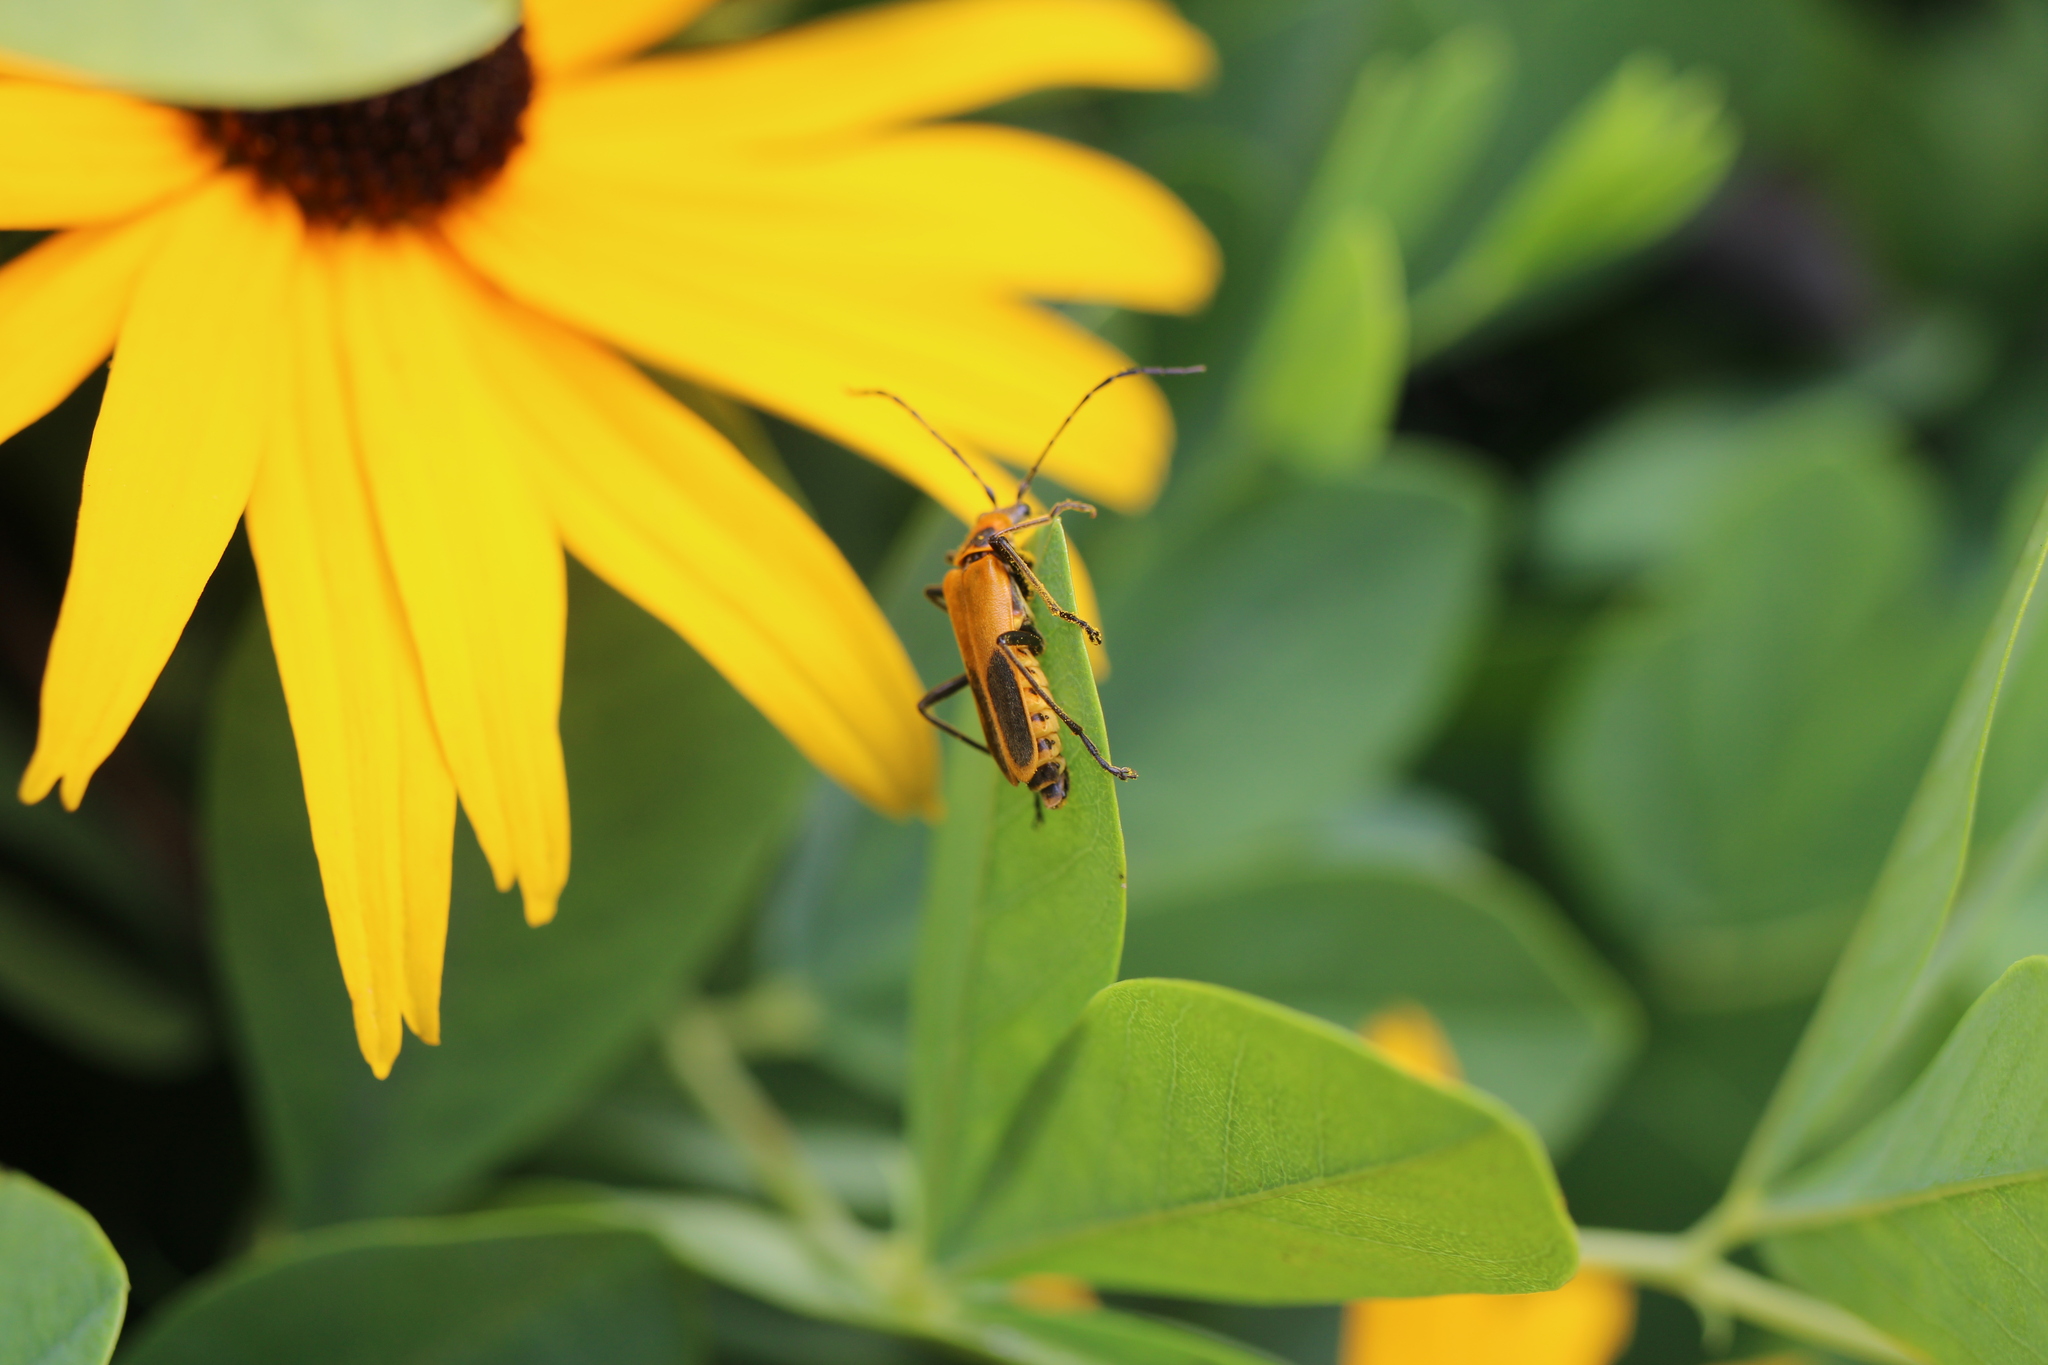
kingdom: Animalia
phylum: Arthropoda
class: Insecta
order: Coleoptera
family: Cantharidae
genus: Chauliognathus
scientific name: Chauliognathus pensylvanicus
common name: Goldenrod soldier beetle
